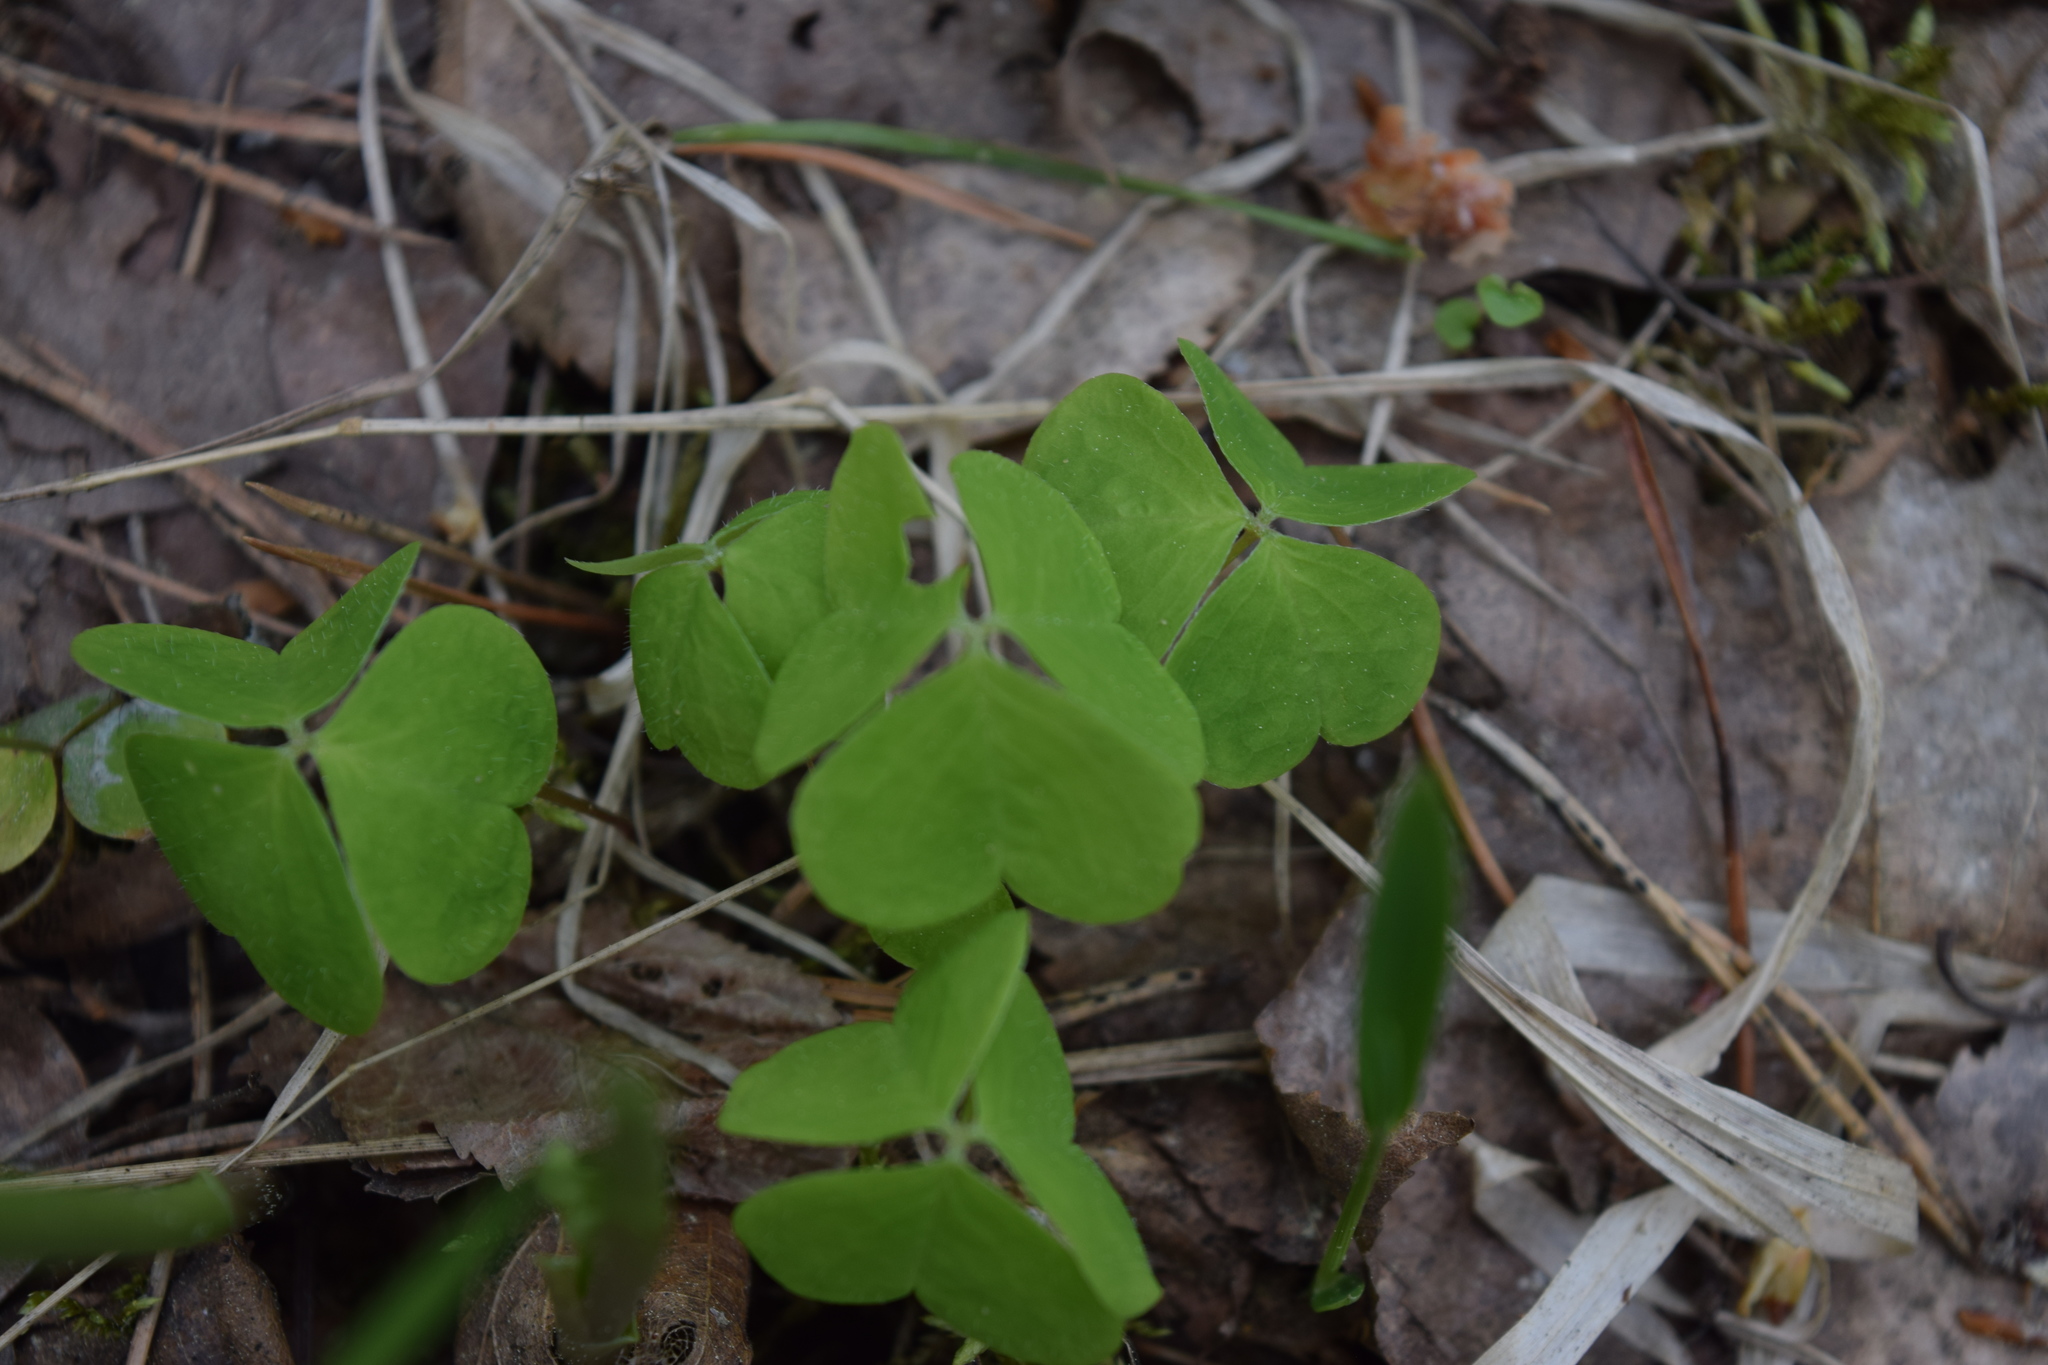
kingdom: Plantae
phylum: Tracheophyta
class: Magnoliopsida
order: Oxalidales
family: Oxalidaceae
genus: Oxalis
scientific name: Oxalis acetosella
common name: Wood-sorrel
